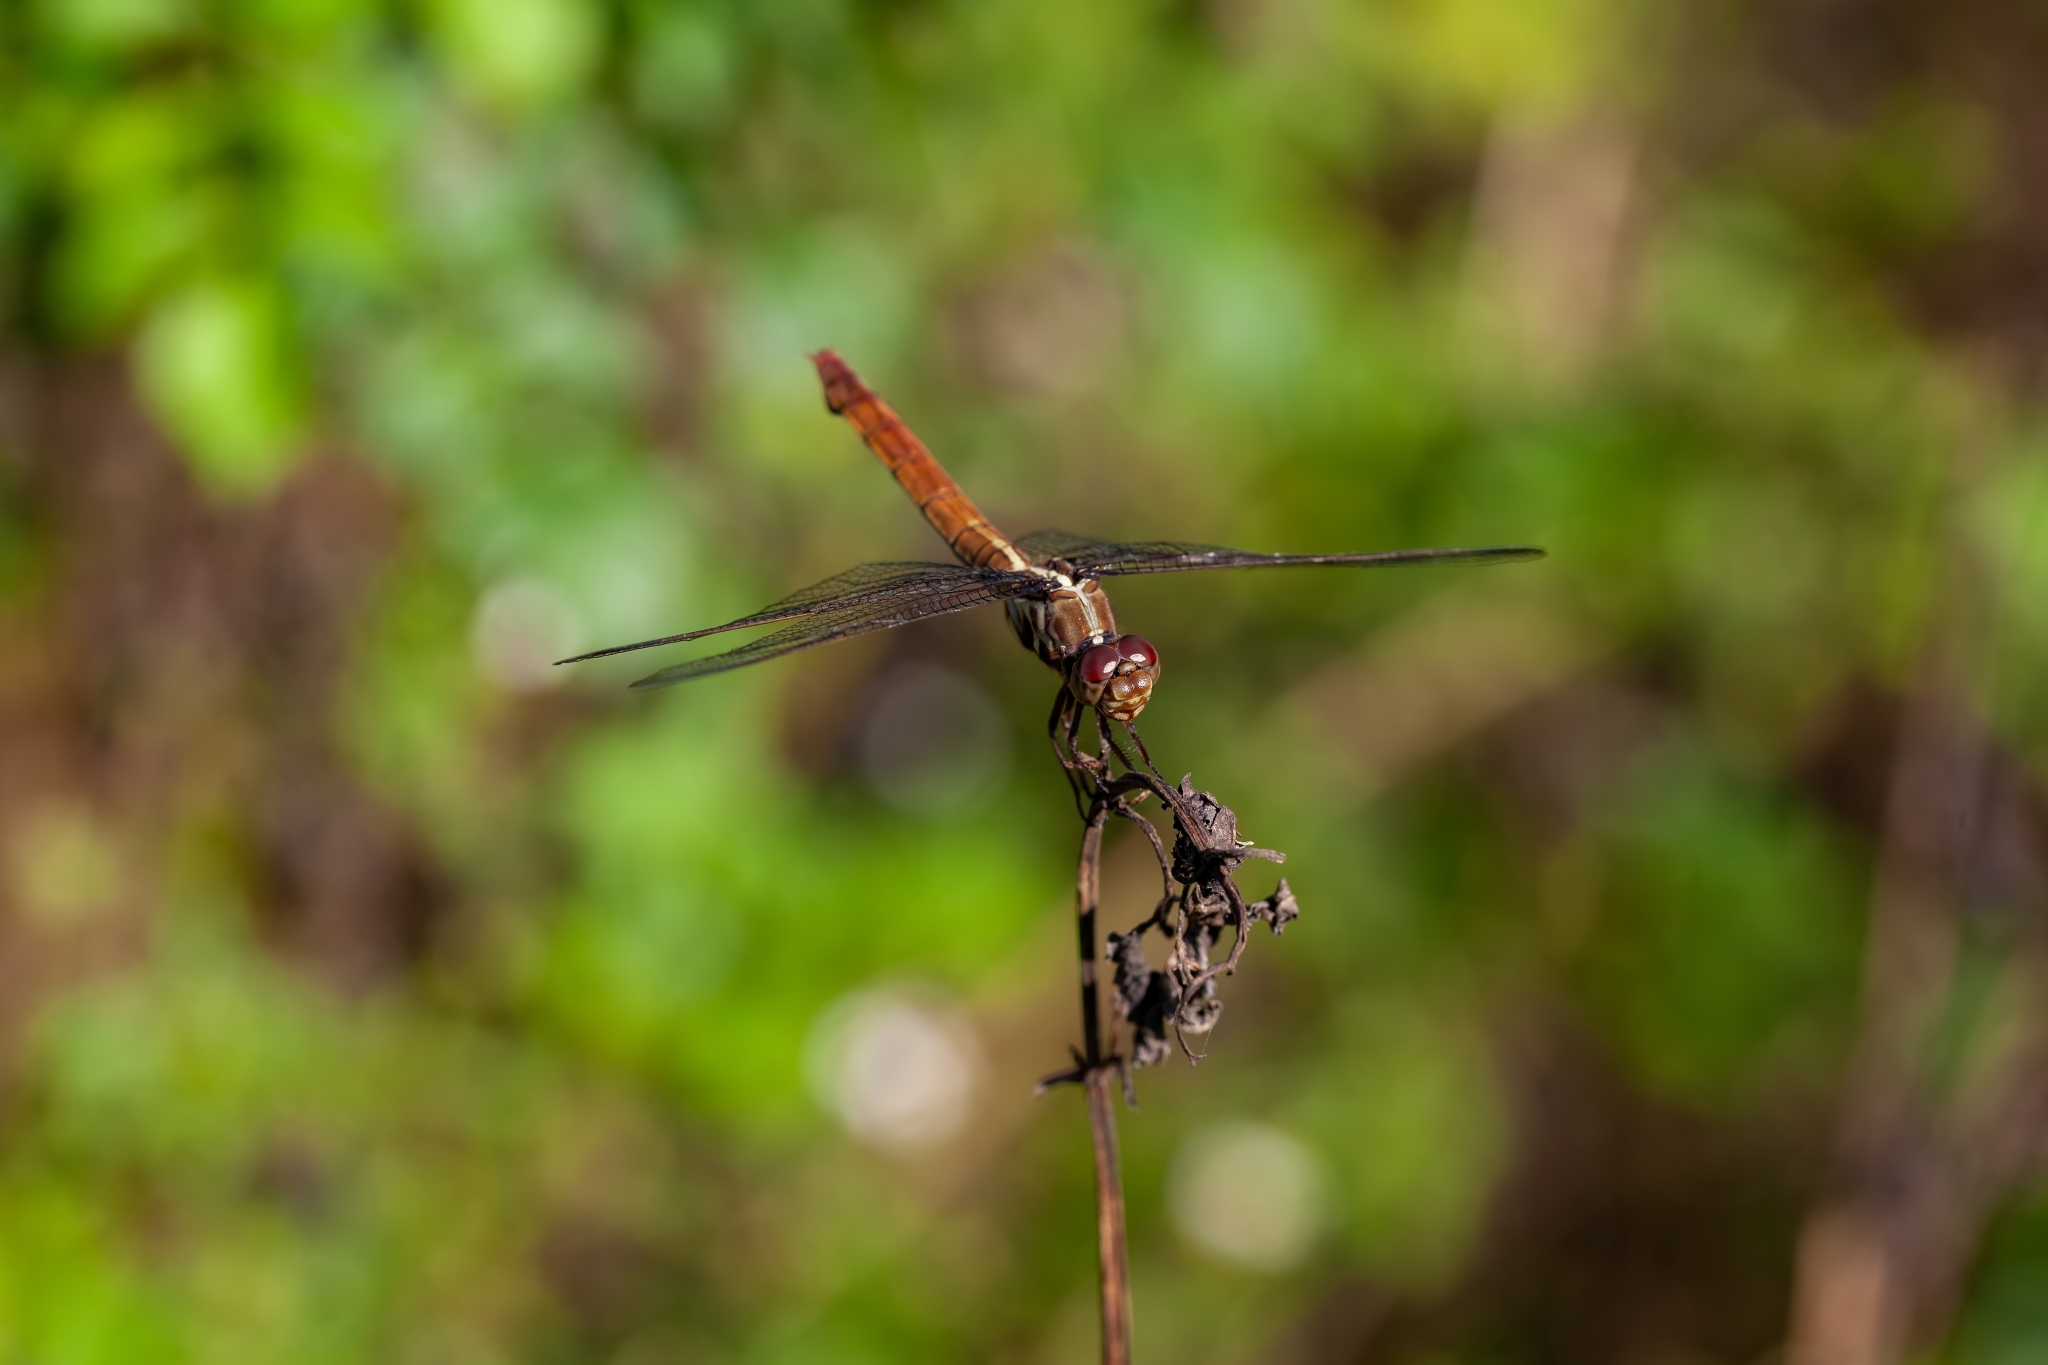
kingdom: Animalia
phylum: Arthropoda
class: Insecta
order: Odonata
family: Libellulidae
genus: Orthemis
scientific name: Orthemis ferruginea
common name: Roseate skimmer
